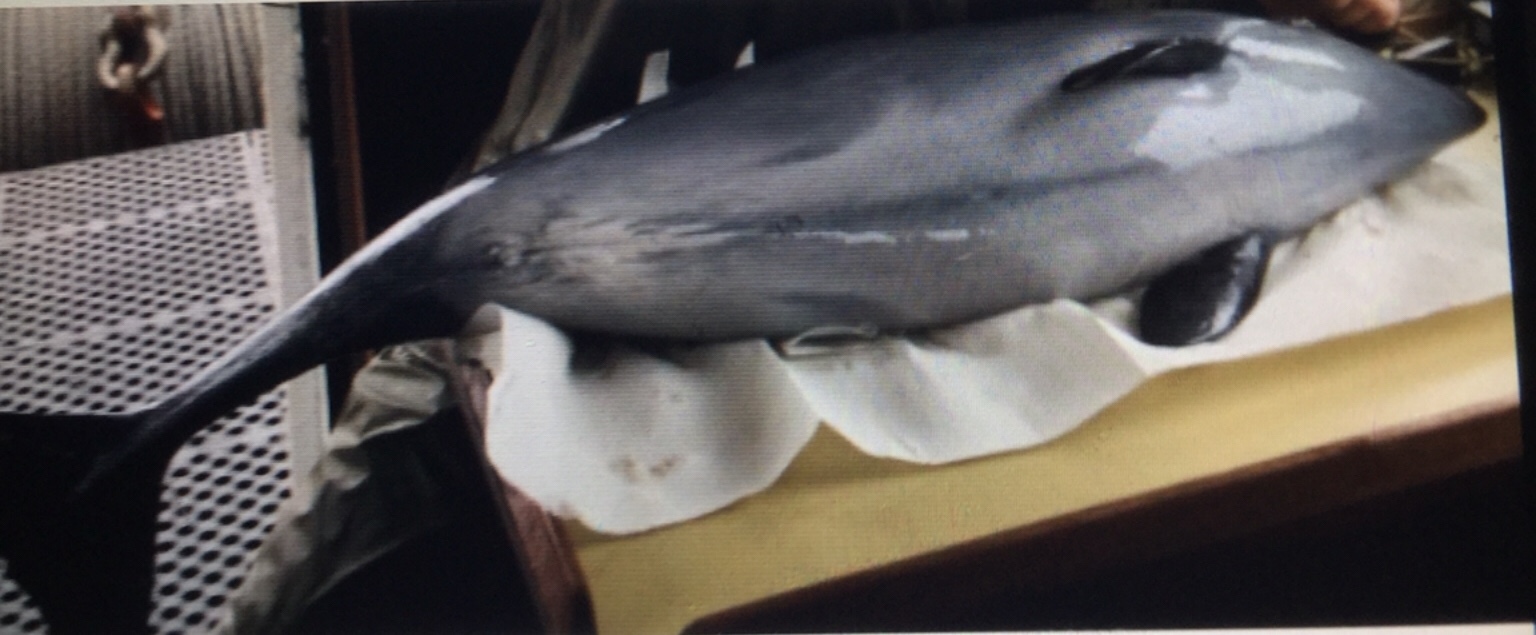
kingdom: Animalia
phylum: Chordata
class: Mammalia
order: Cetacea
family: Phocoenidae
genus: Phocoena
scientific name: Phocoena phocoena
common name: Harbor porpoise
